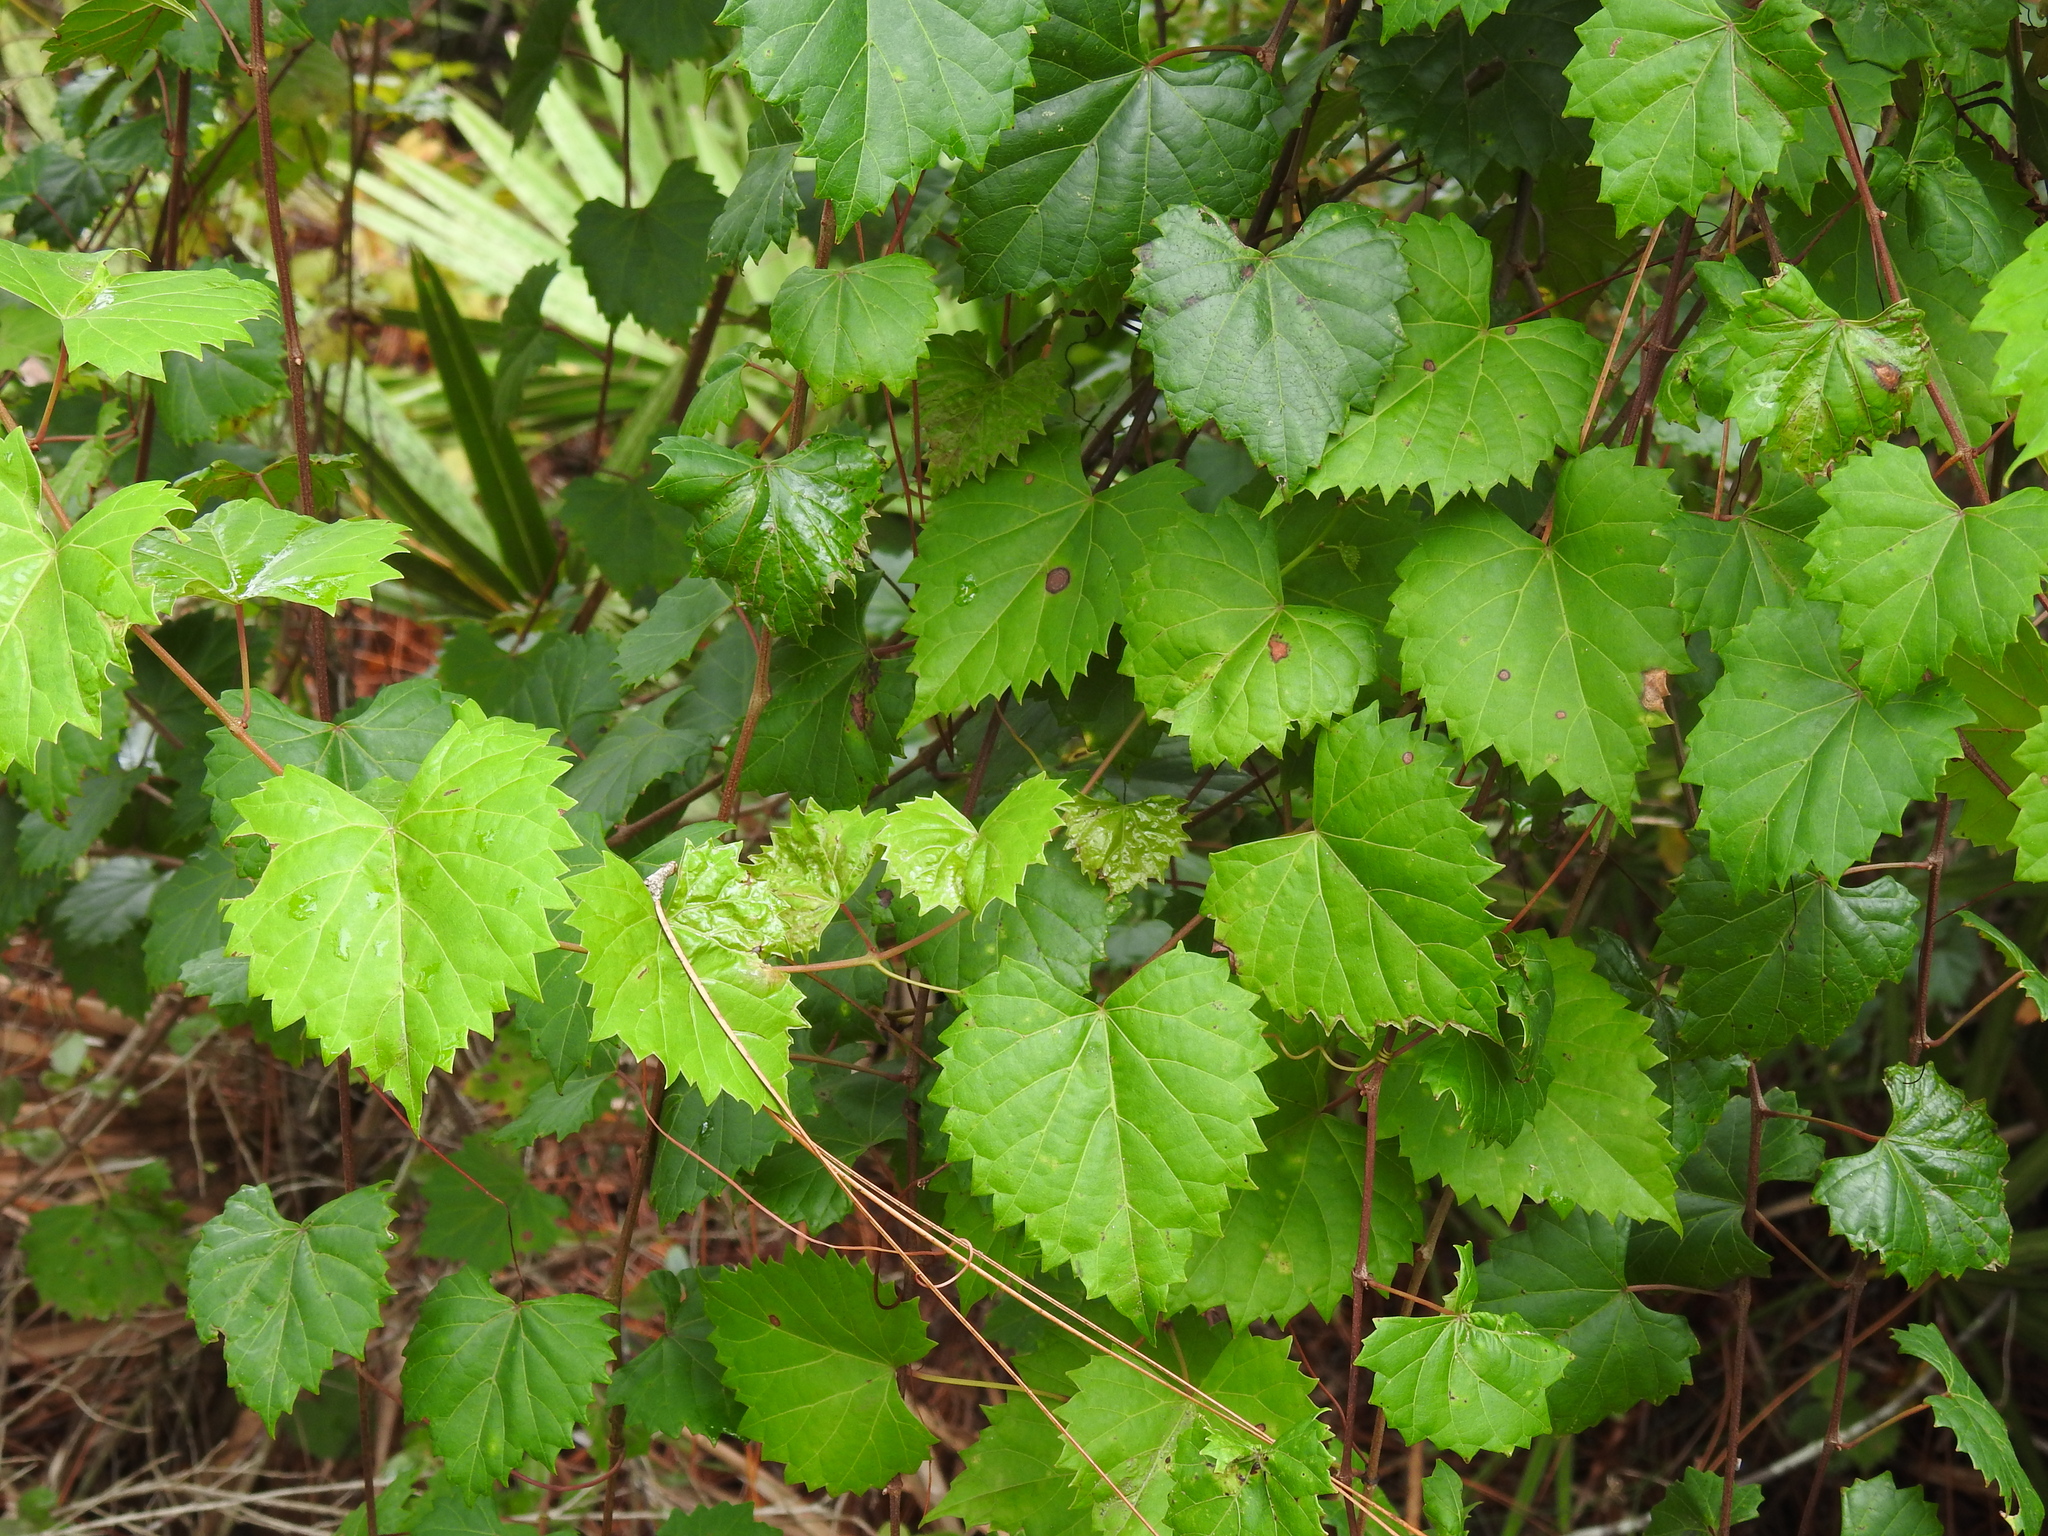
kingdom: Plantae
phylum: Tracheophyta
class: Magnoliopsida
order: Vitales
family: Vitaceae
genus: Vitis
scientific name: Vitis rotundifolia
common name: Muscadine grape
